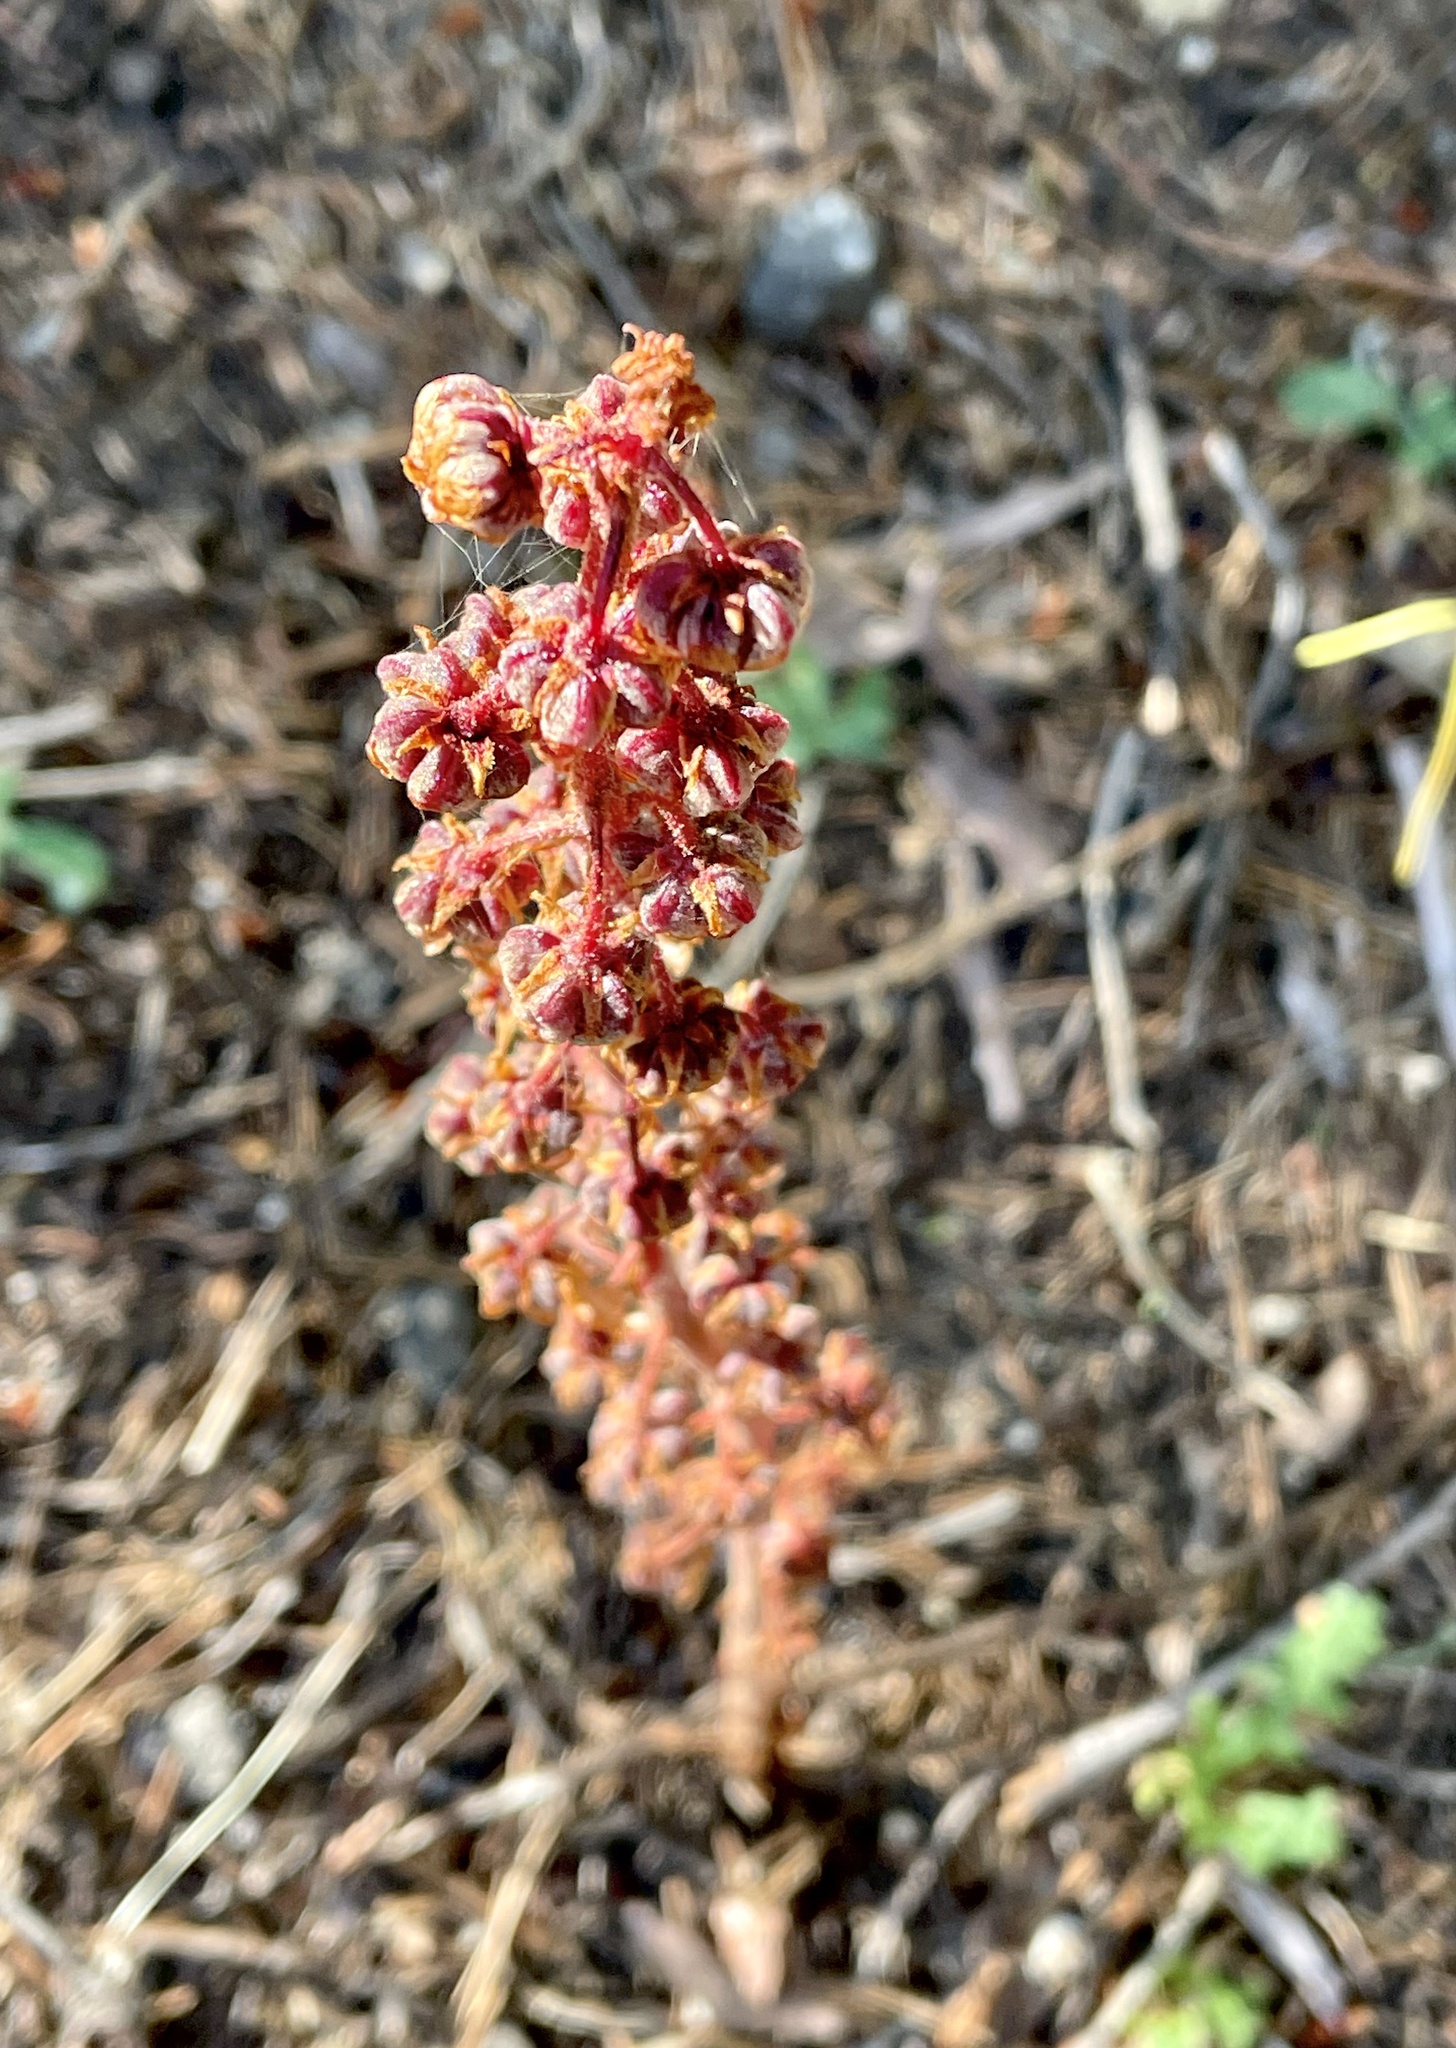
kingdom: Plantae
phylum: Tracheophyta
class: Magnoliopsida
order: Ericales
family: Ericaceae
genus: Pterospora
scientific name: Pterospora andromedea
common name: Giant bird's-nest
